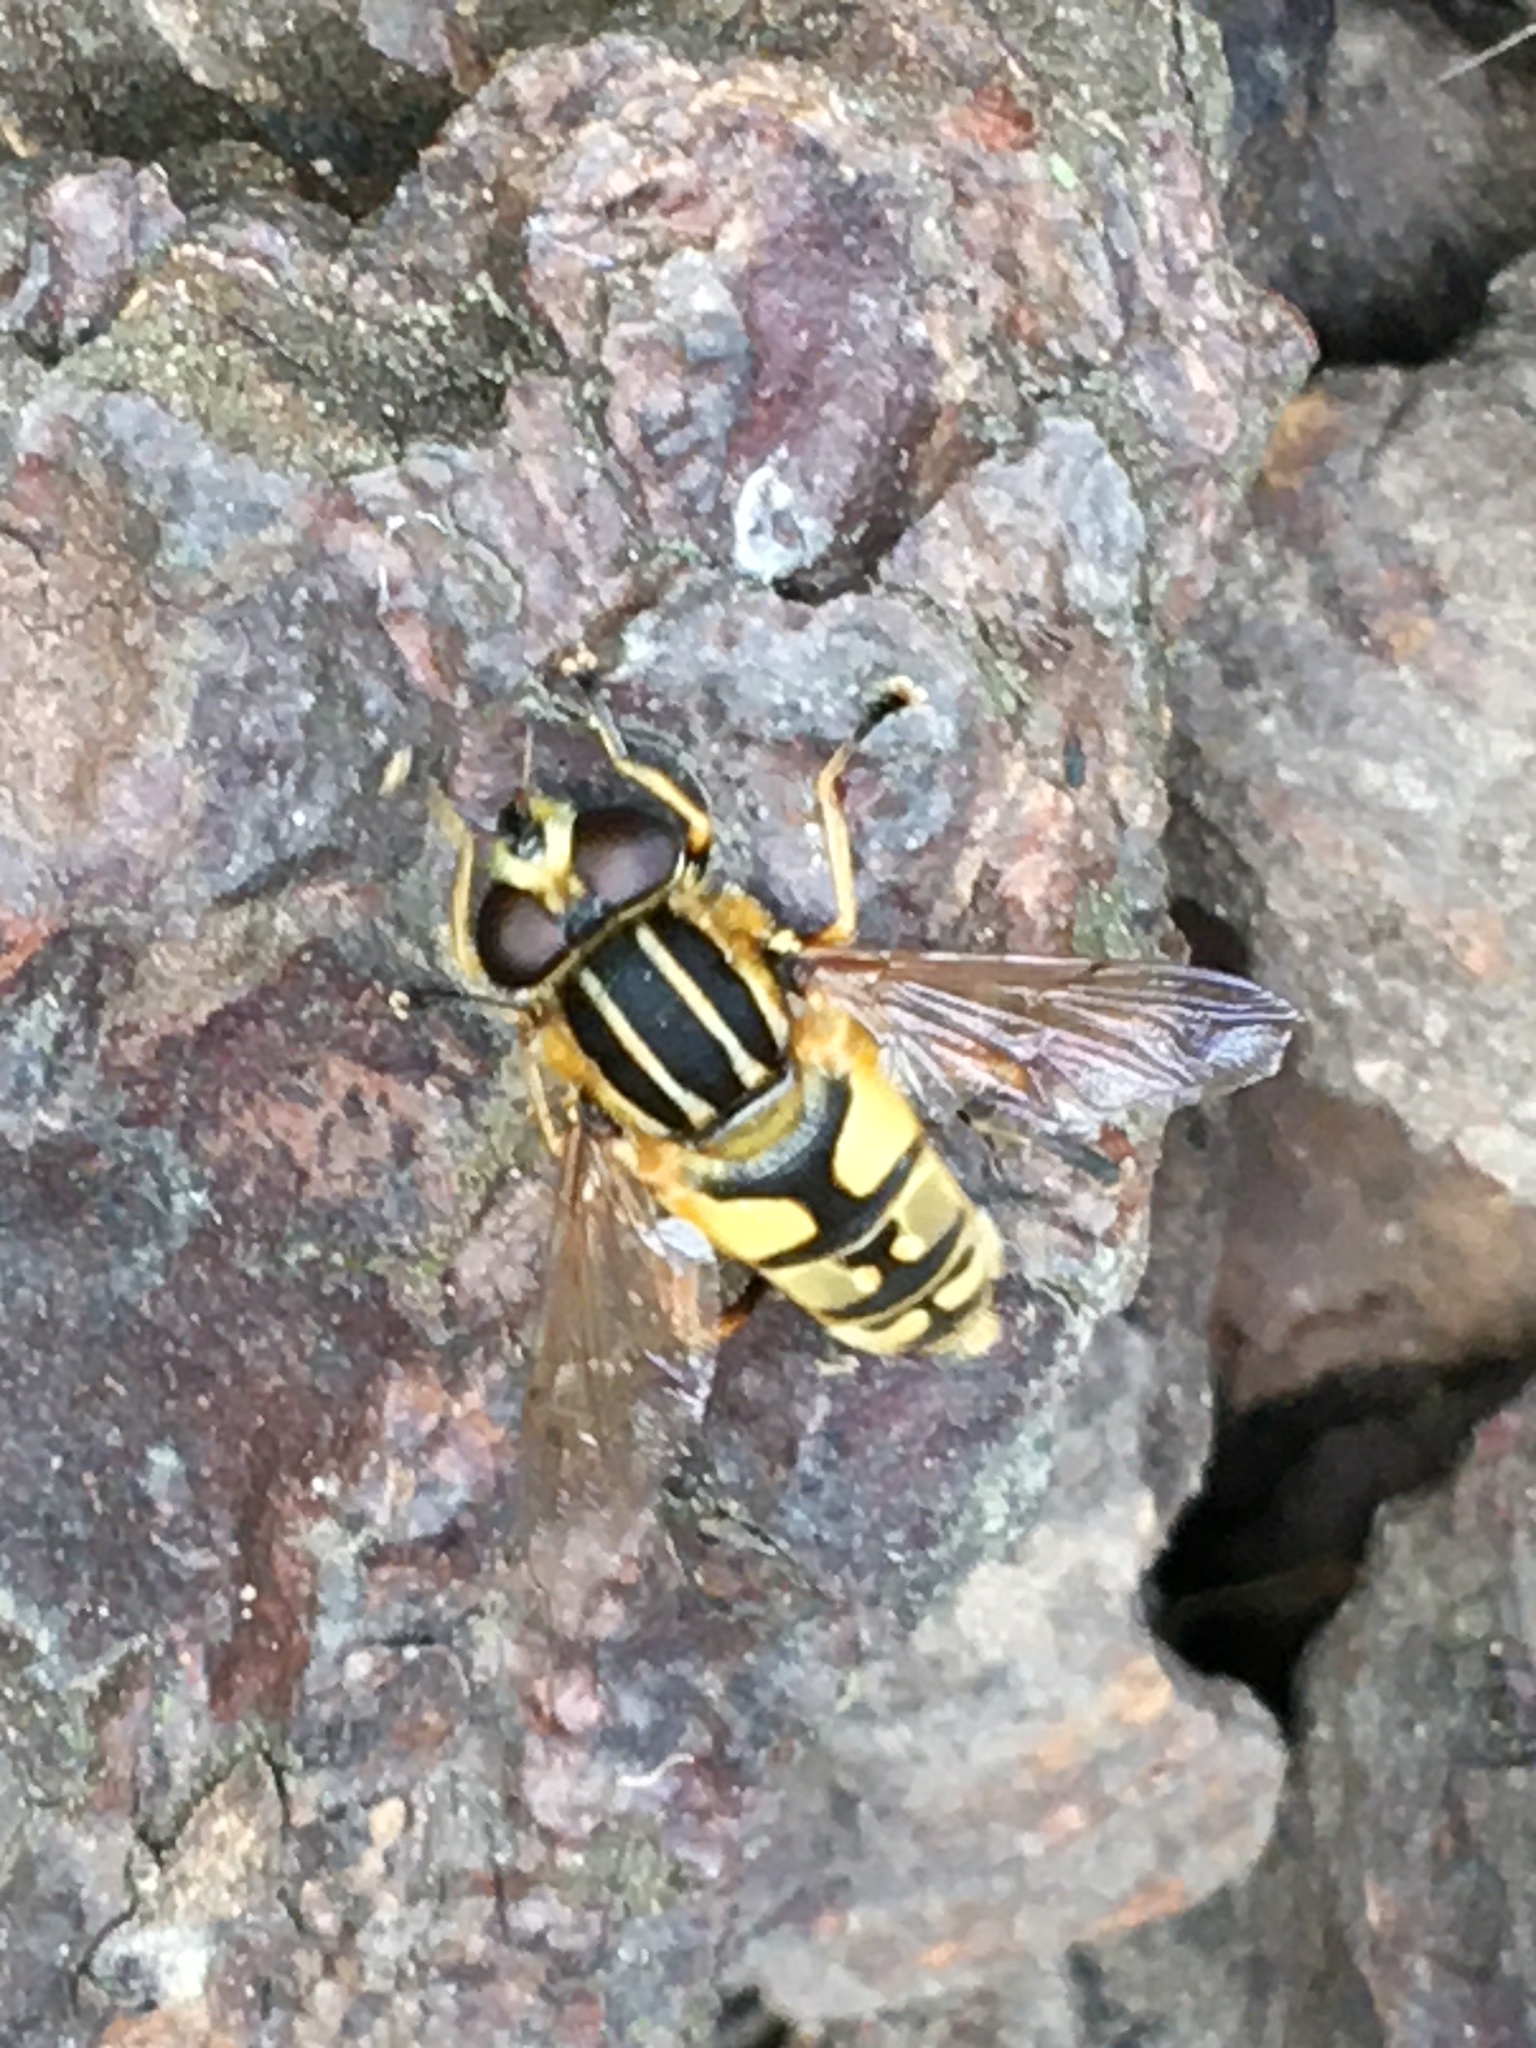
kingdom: Animalia
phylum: Arthropoda
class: Insecta
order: Diptera
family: Syrphidae
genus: Helophilus
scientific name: Helophilus pendulus
